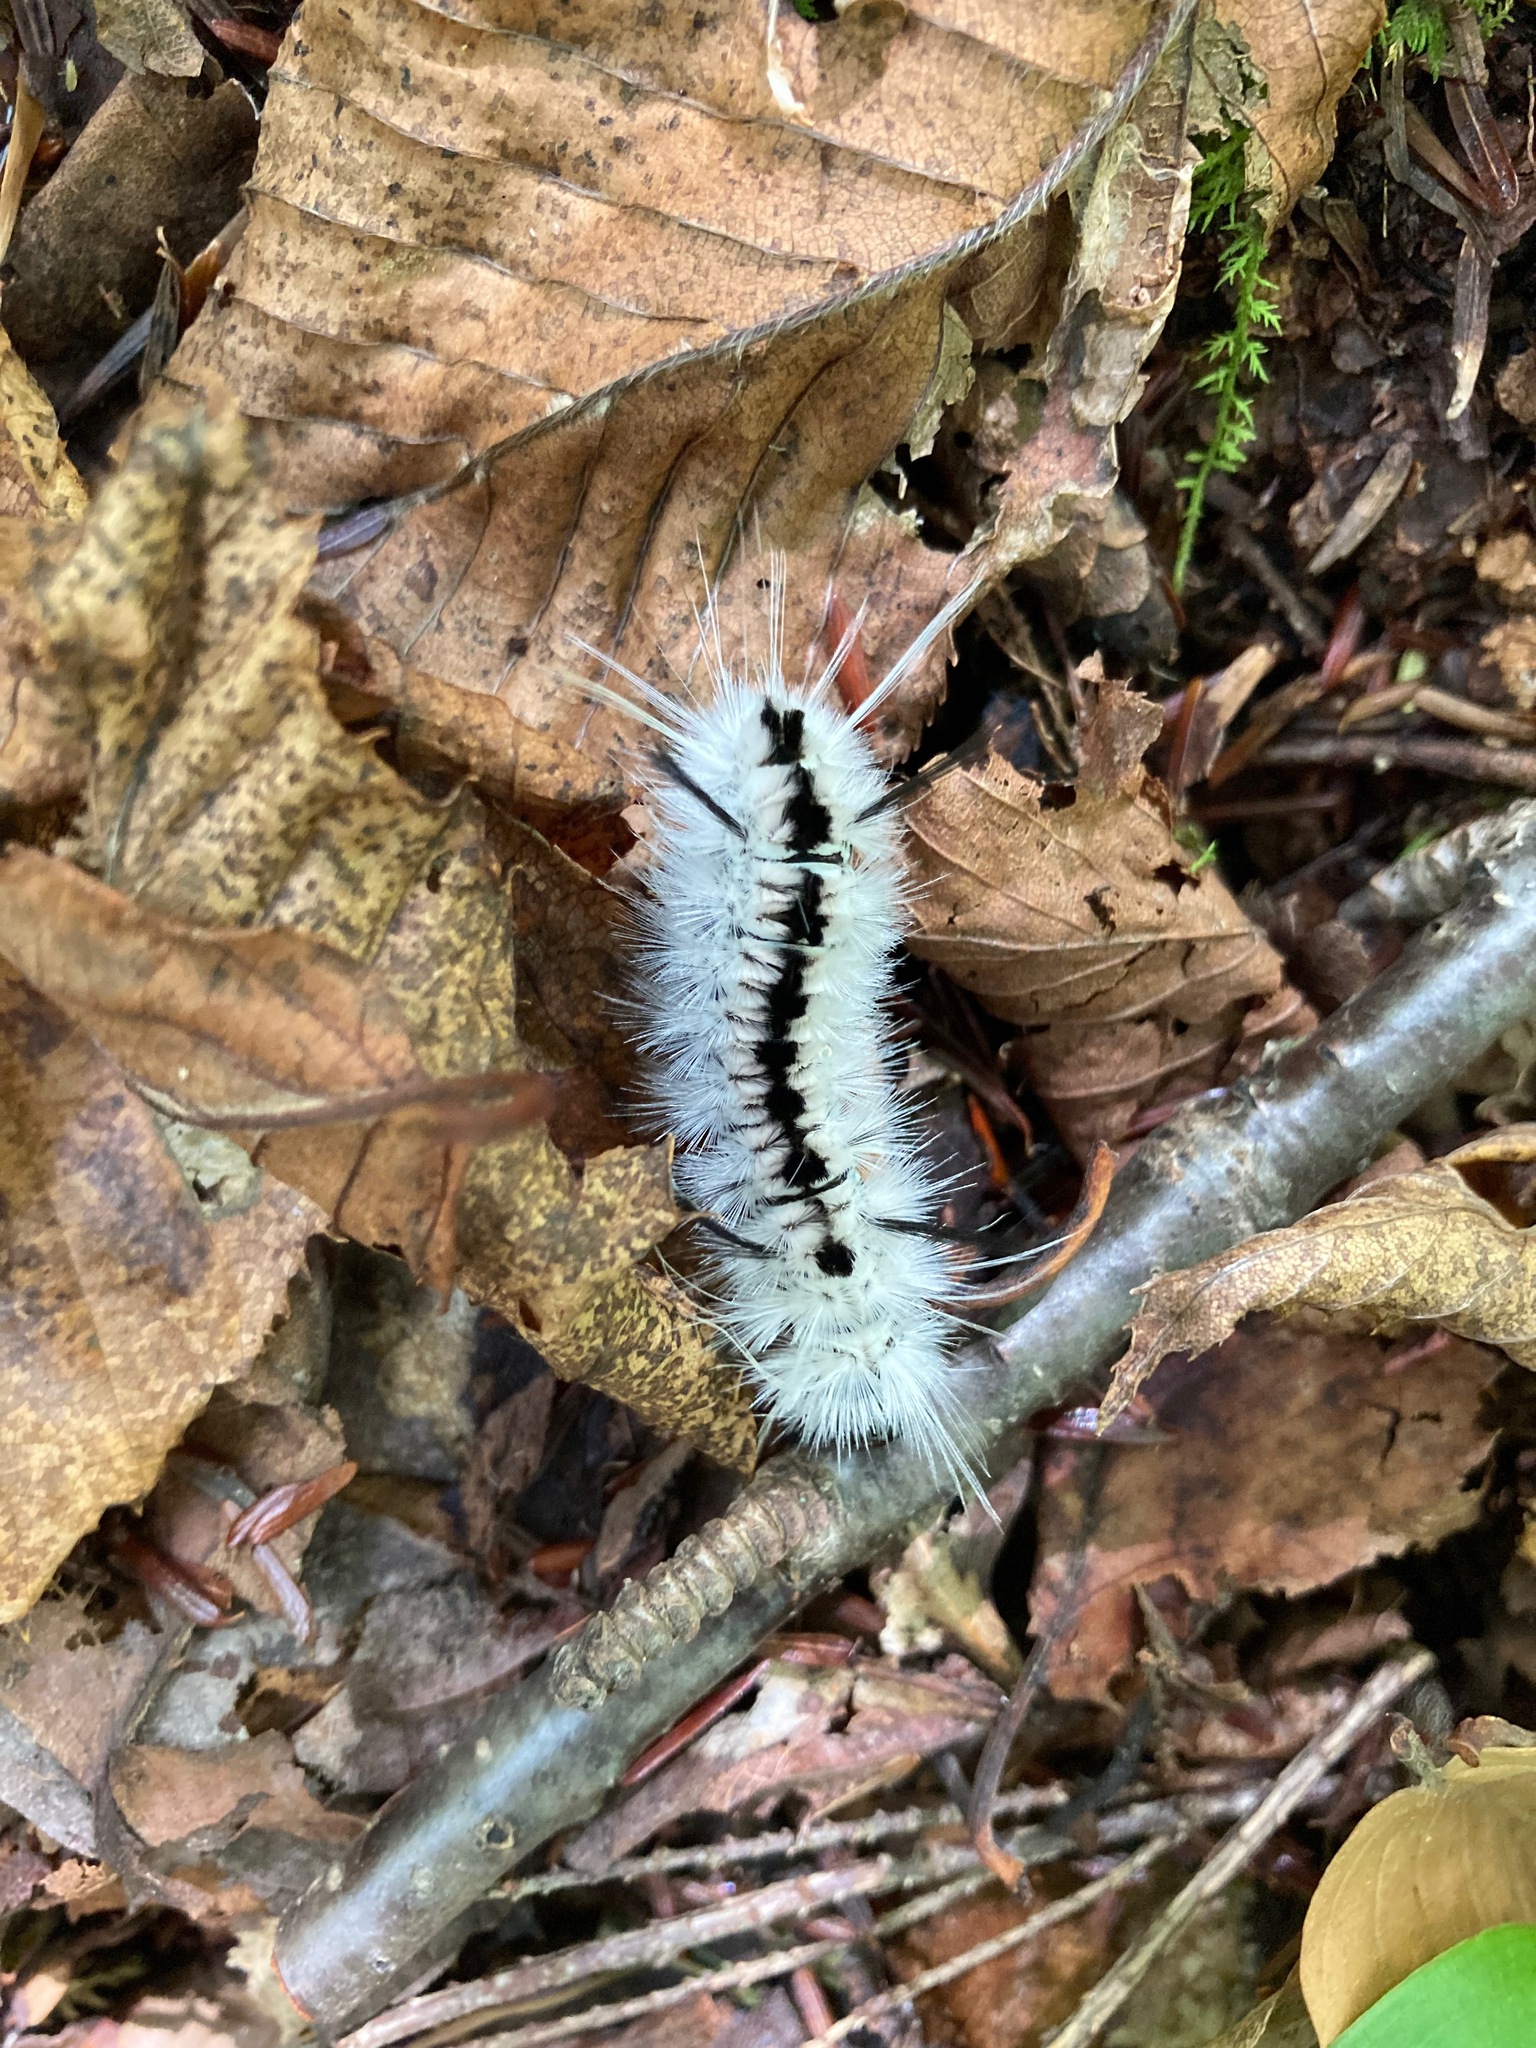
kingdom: Animalia
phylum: Arthropoda
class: Insecta
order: Lepidoptera
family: Erebidae
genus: Lophocampa
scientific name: Lophocampa caryae
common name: Hickory tussock moth
